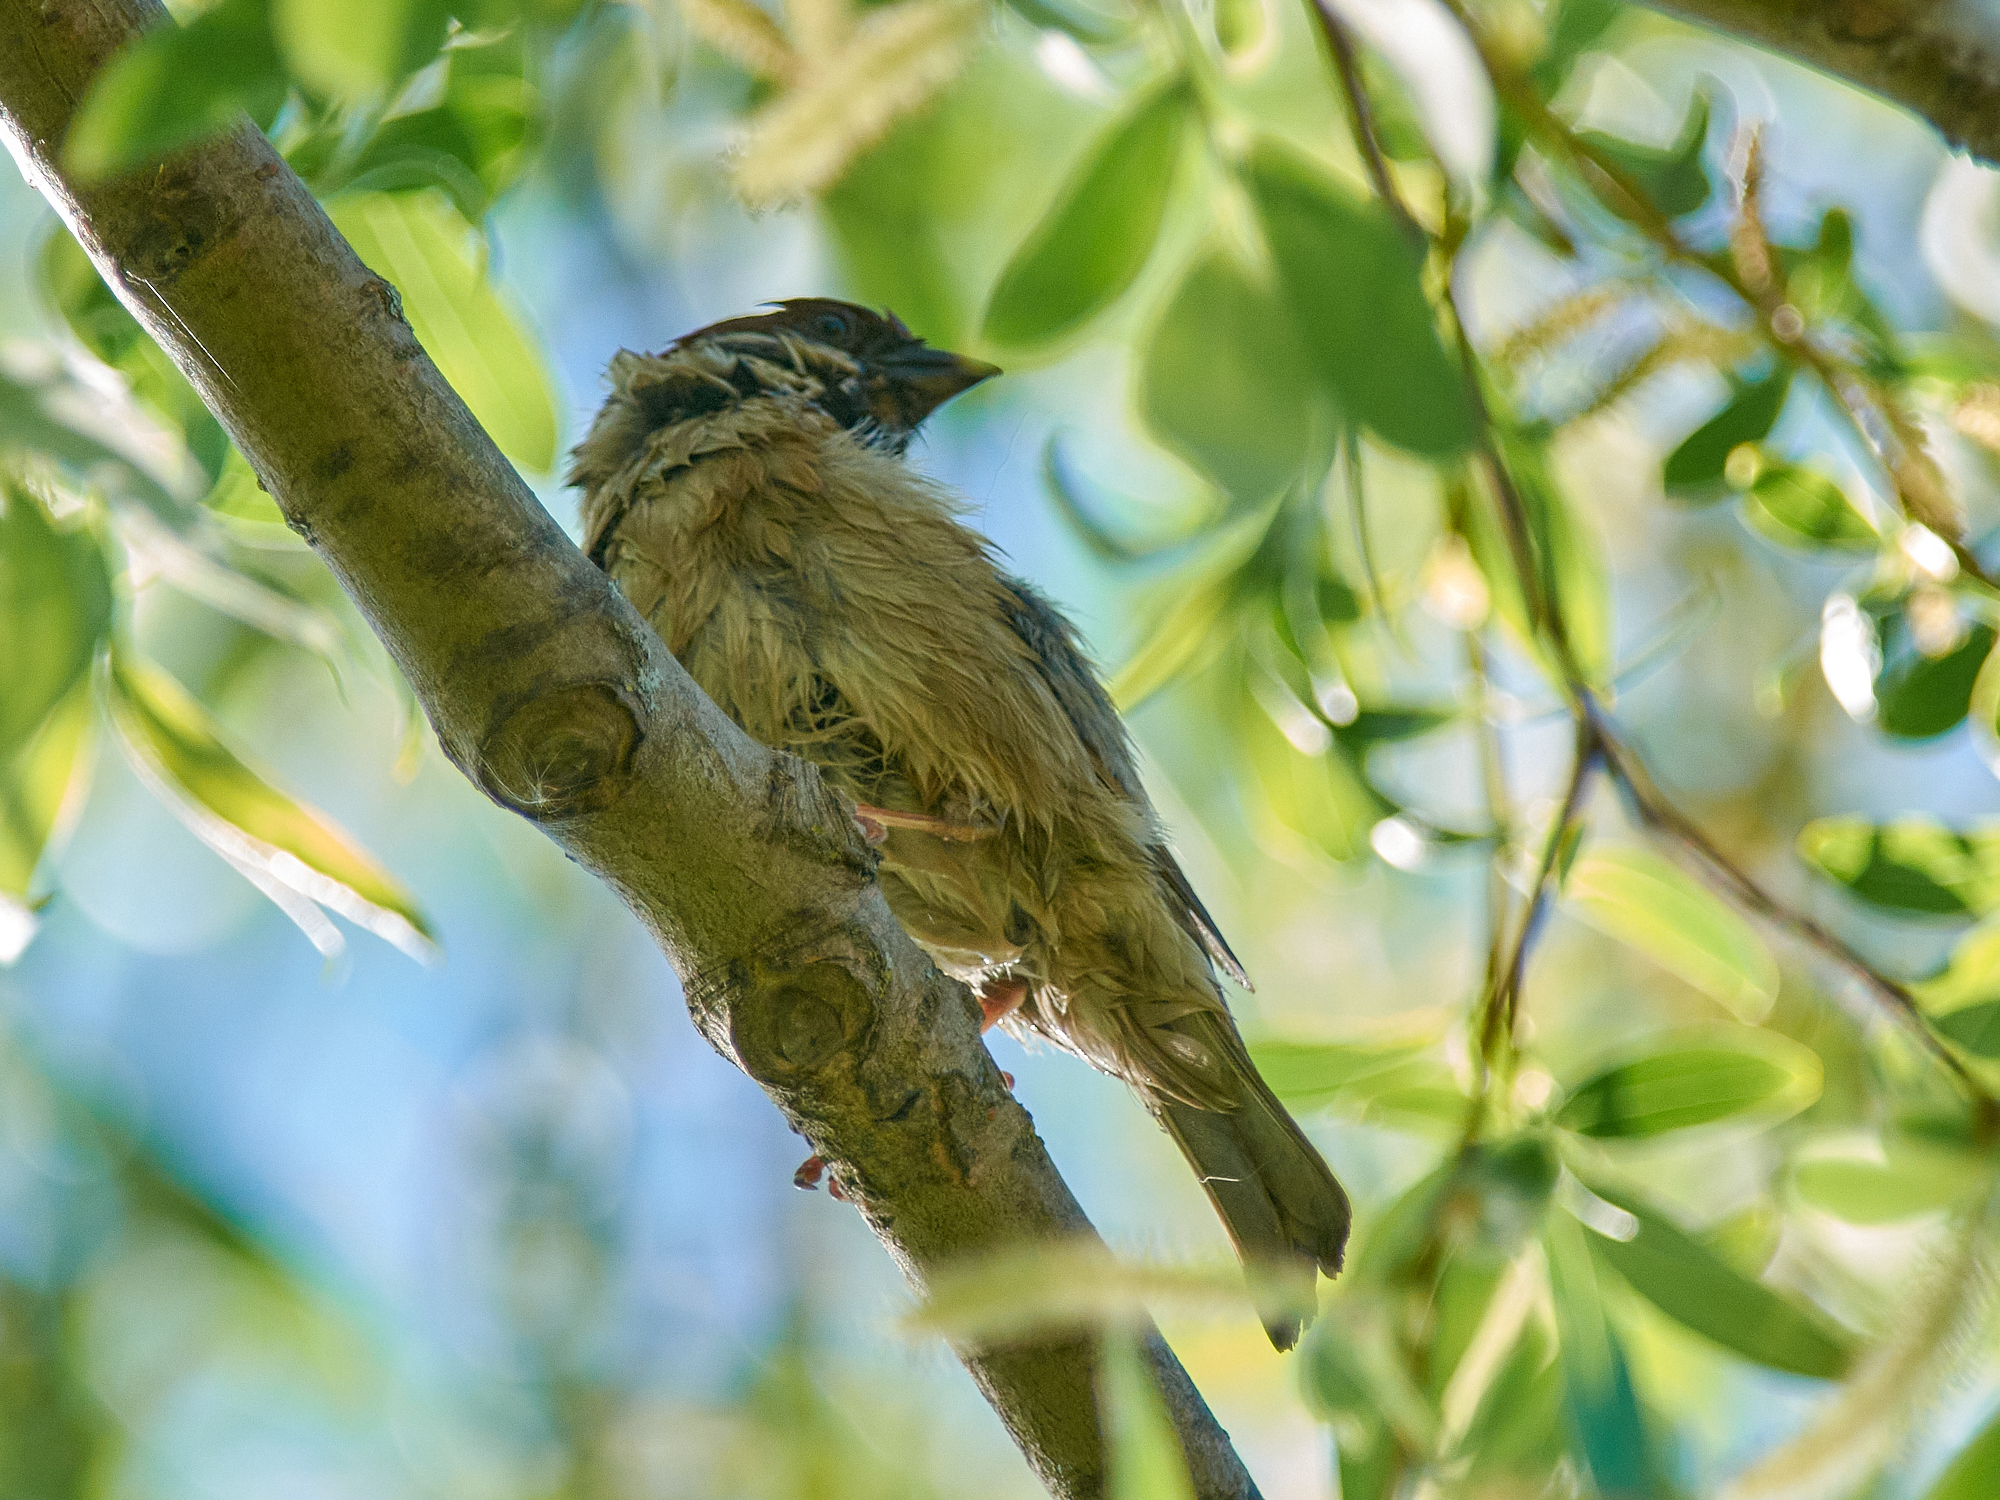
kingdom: Animalia
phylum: Chordata
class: Aves
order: Passeriformes
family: Passeridae
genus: Passer
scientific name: Passer montanus
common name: Eurasian tree sparrow
